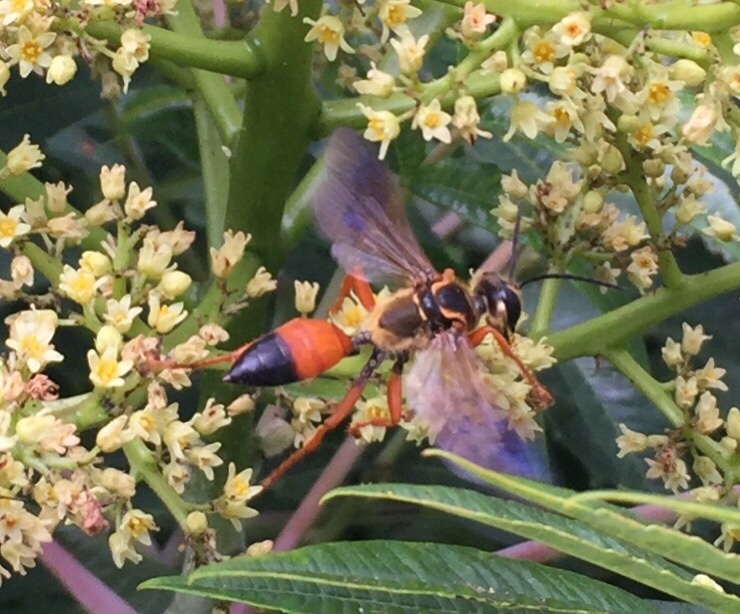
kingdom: Animalia
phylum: Arthropoda
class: Insecta
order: Hymenoptera
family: Sphecidae
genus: Sphex
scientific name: Sphex ichneumoneus
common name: Great golden digger wasp
